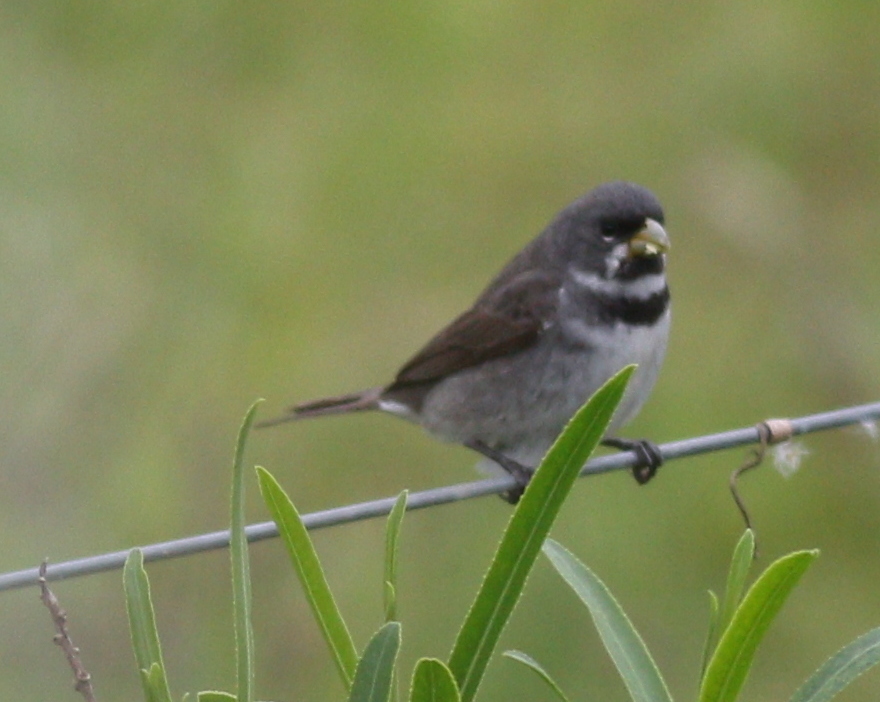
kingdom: Animalia
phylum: Chordata
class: Aves
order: Passeriformes
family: Thraupidae
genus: Sporophila
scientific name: Sporophila caerulescens
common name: Double-collared seedeater
